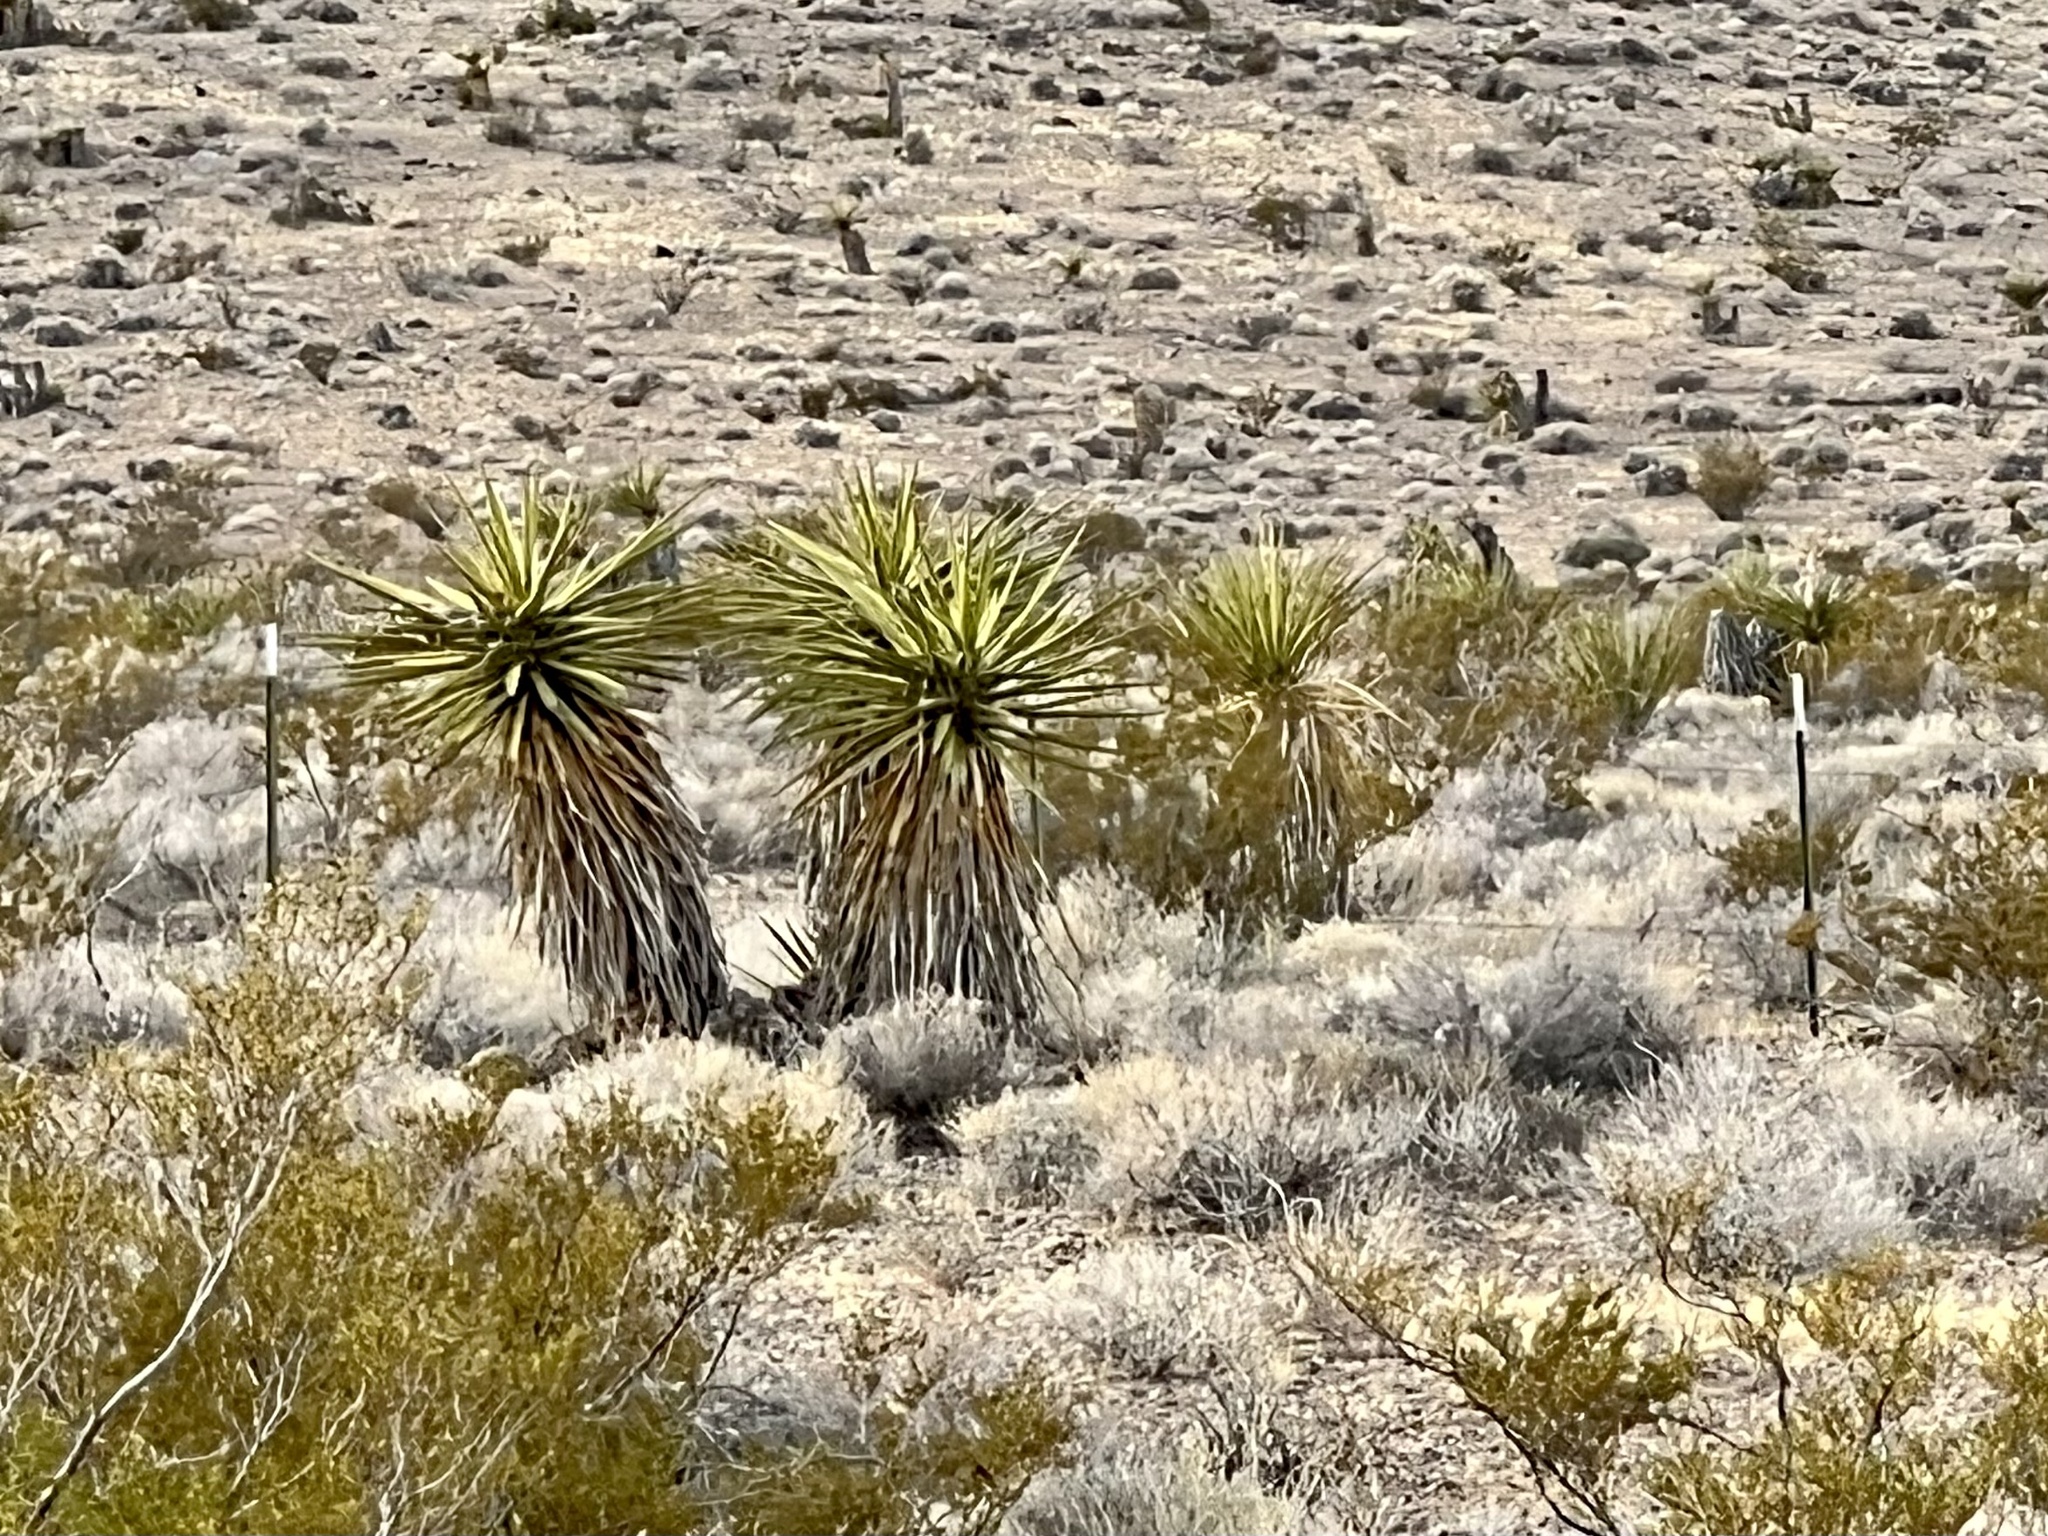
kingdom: Plantae
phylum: Tracheophyta
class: Liliopsida
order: Asparagales
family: Asparagaceae
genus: Yucca
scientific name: Yucca schidigera
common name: Mojave yucca
